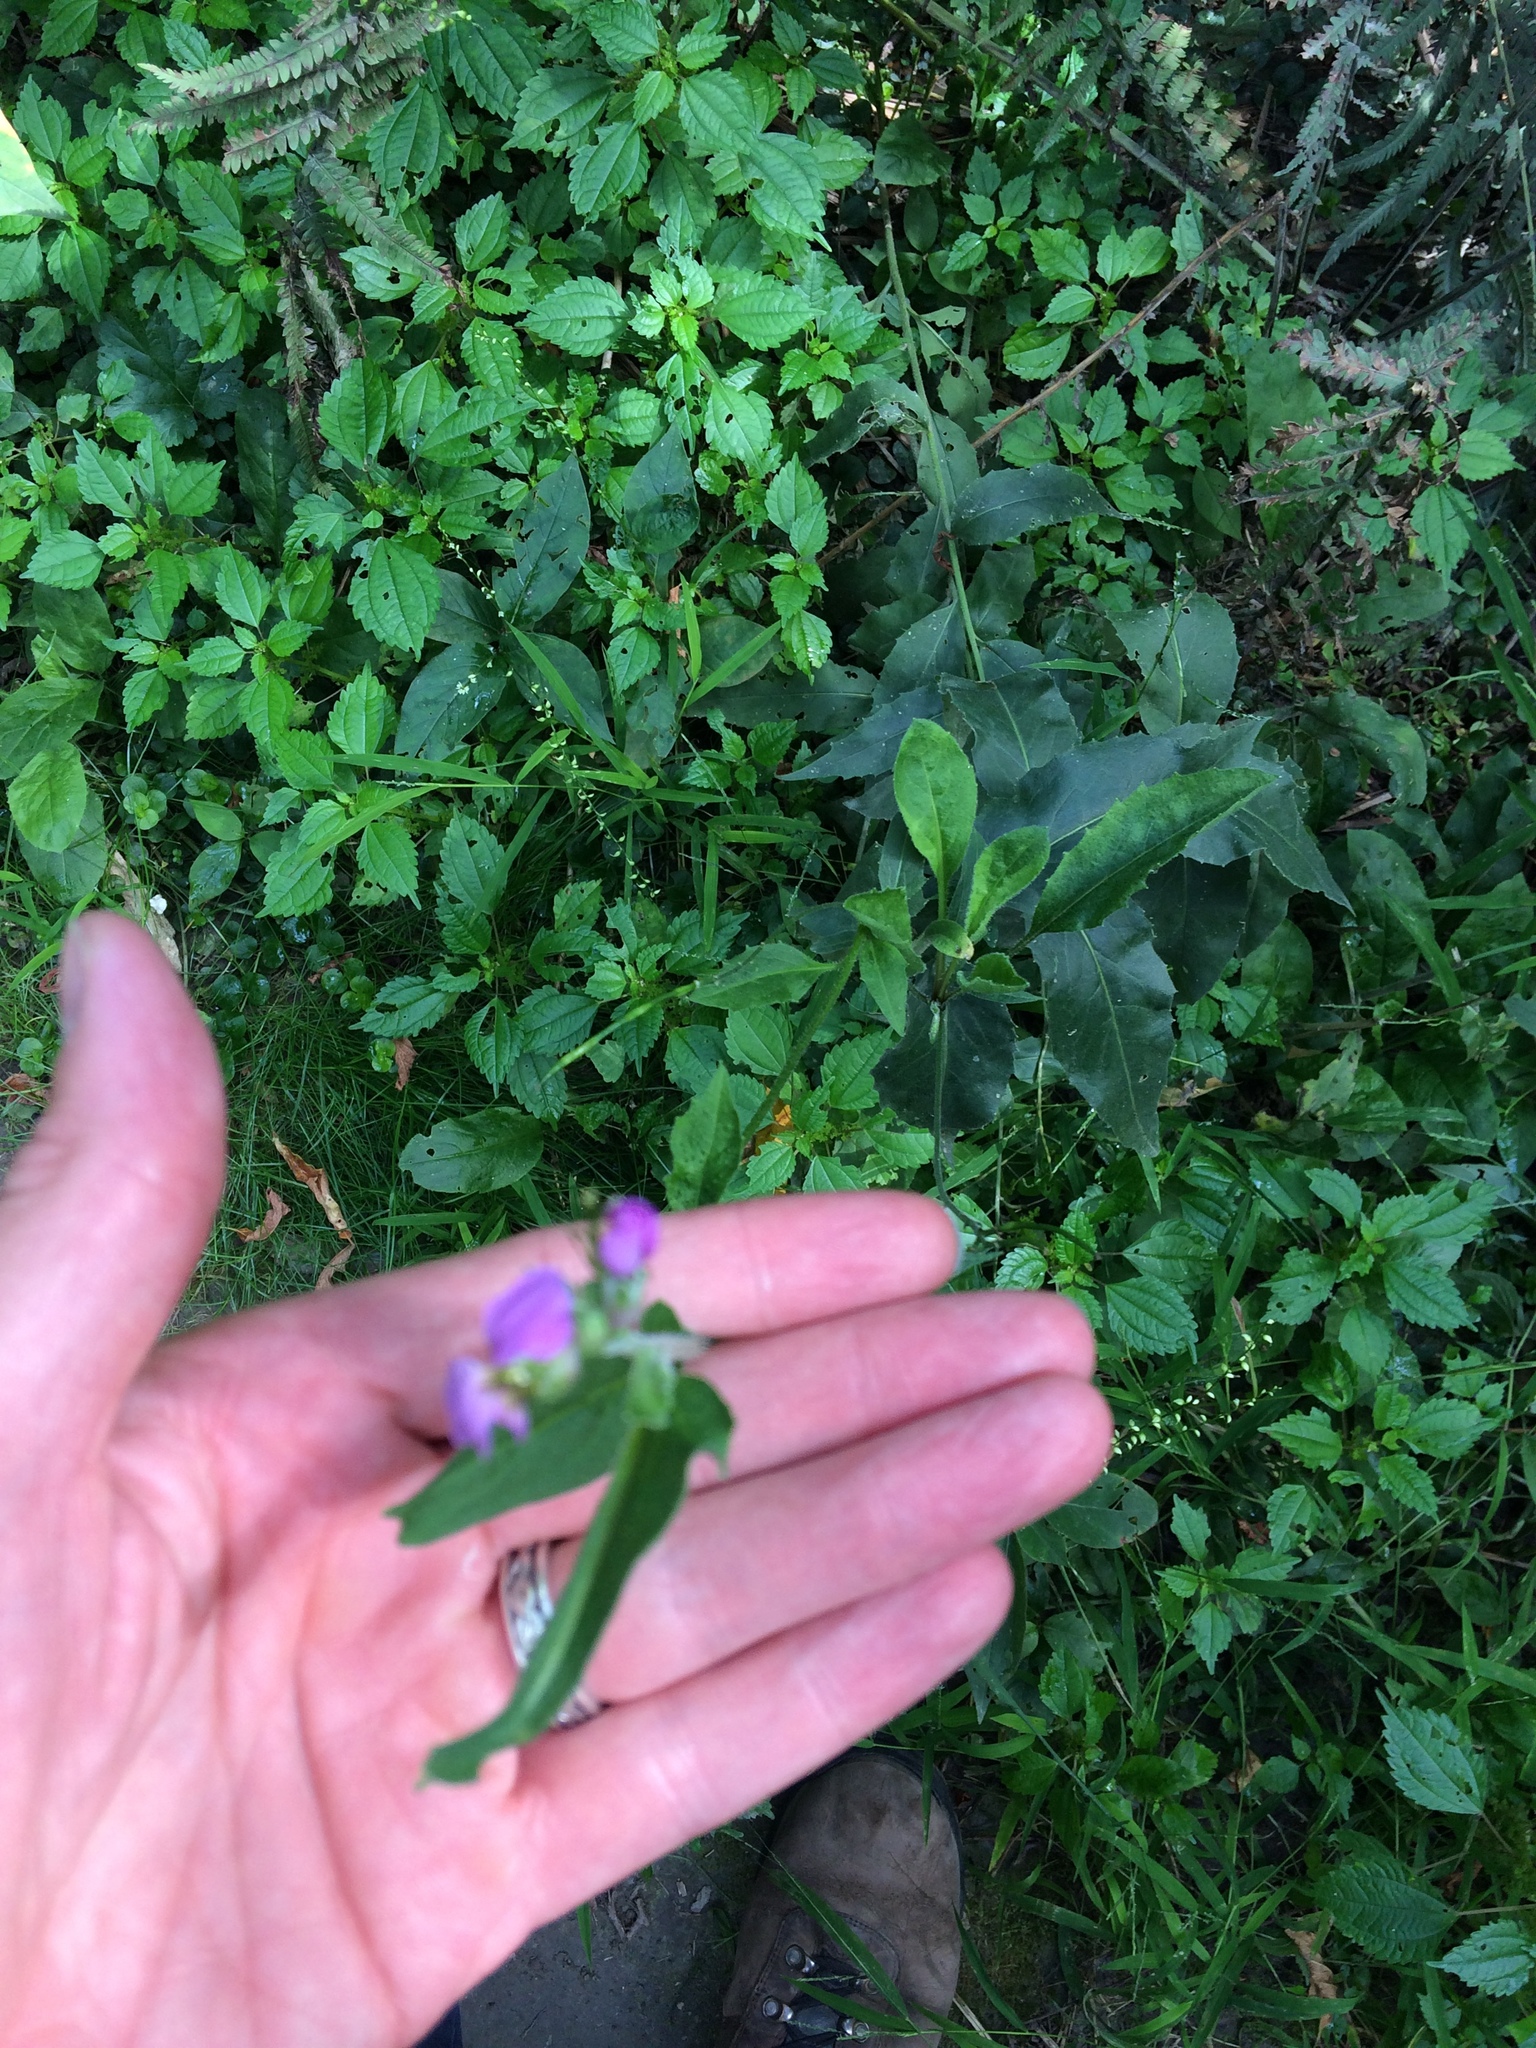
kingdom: Plantae
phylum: Tracheophyta
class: Magnoliopsida
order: Brassicales
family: Brassicaceae
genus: Hesperis
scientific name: Hesperis matronalis
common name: Dame's-violet
